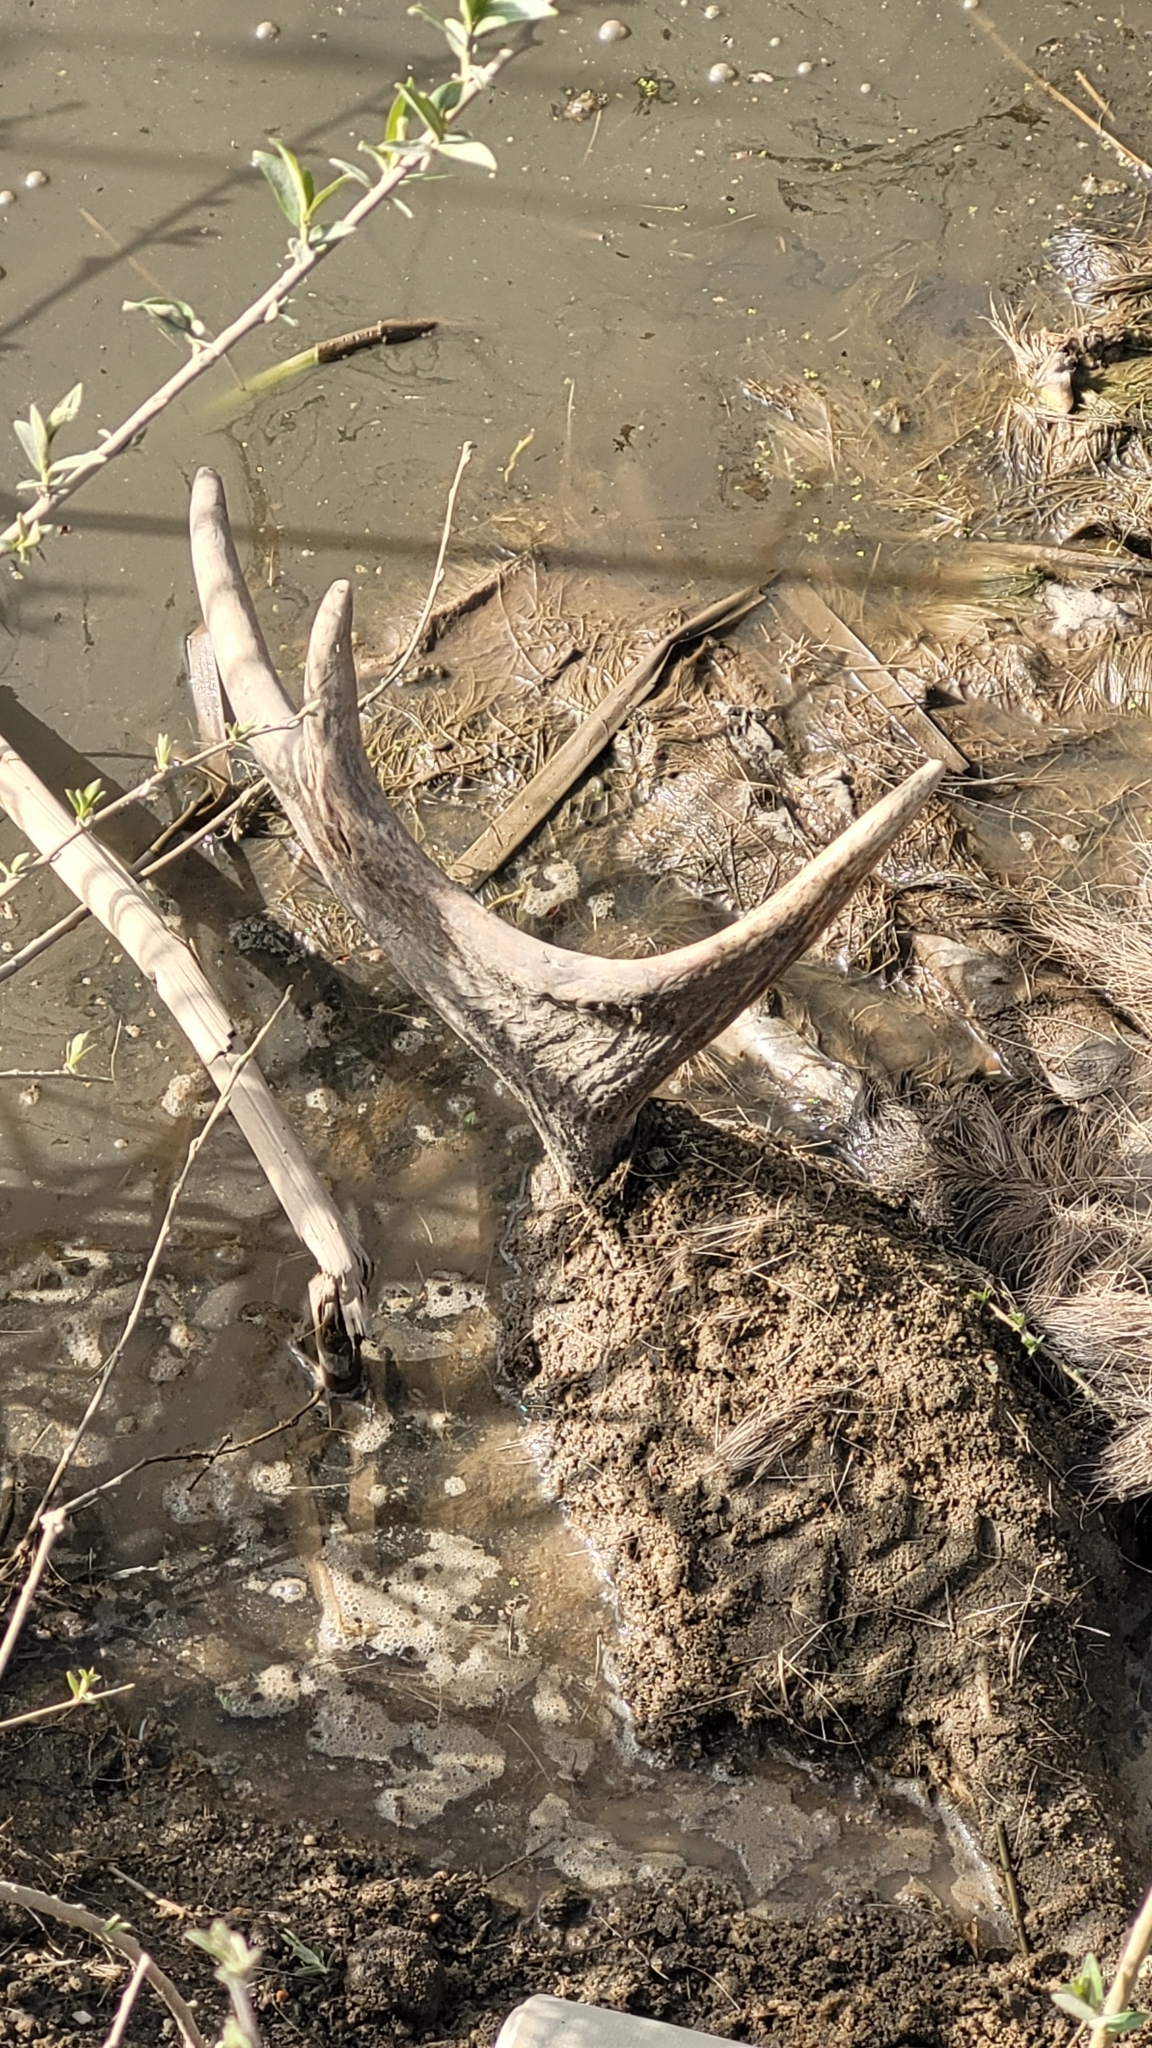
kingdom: Animalia
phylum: Chordata
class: Mammalia
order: Artiodactyla
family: Cervidae
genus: Alces
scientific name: Alces alces
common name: Moose
